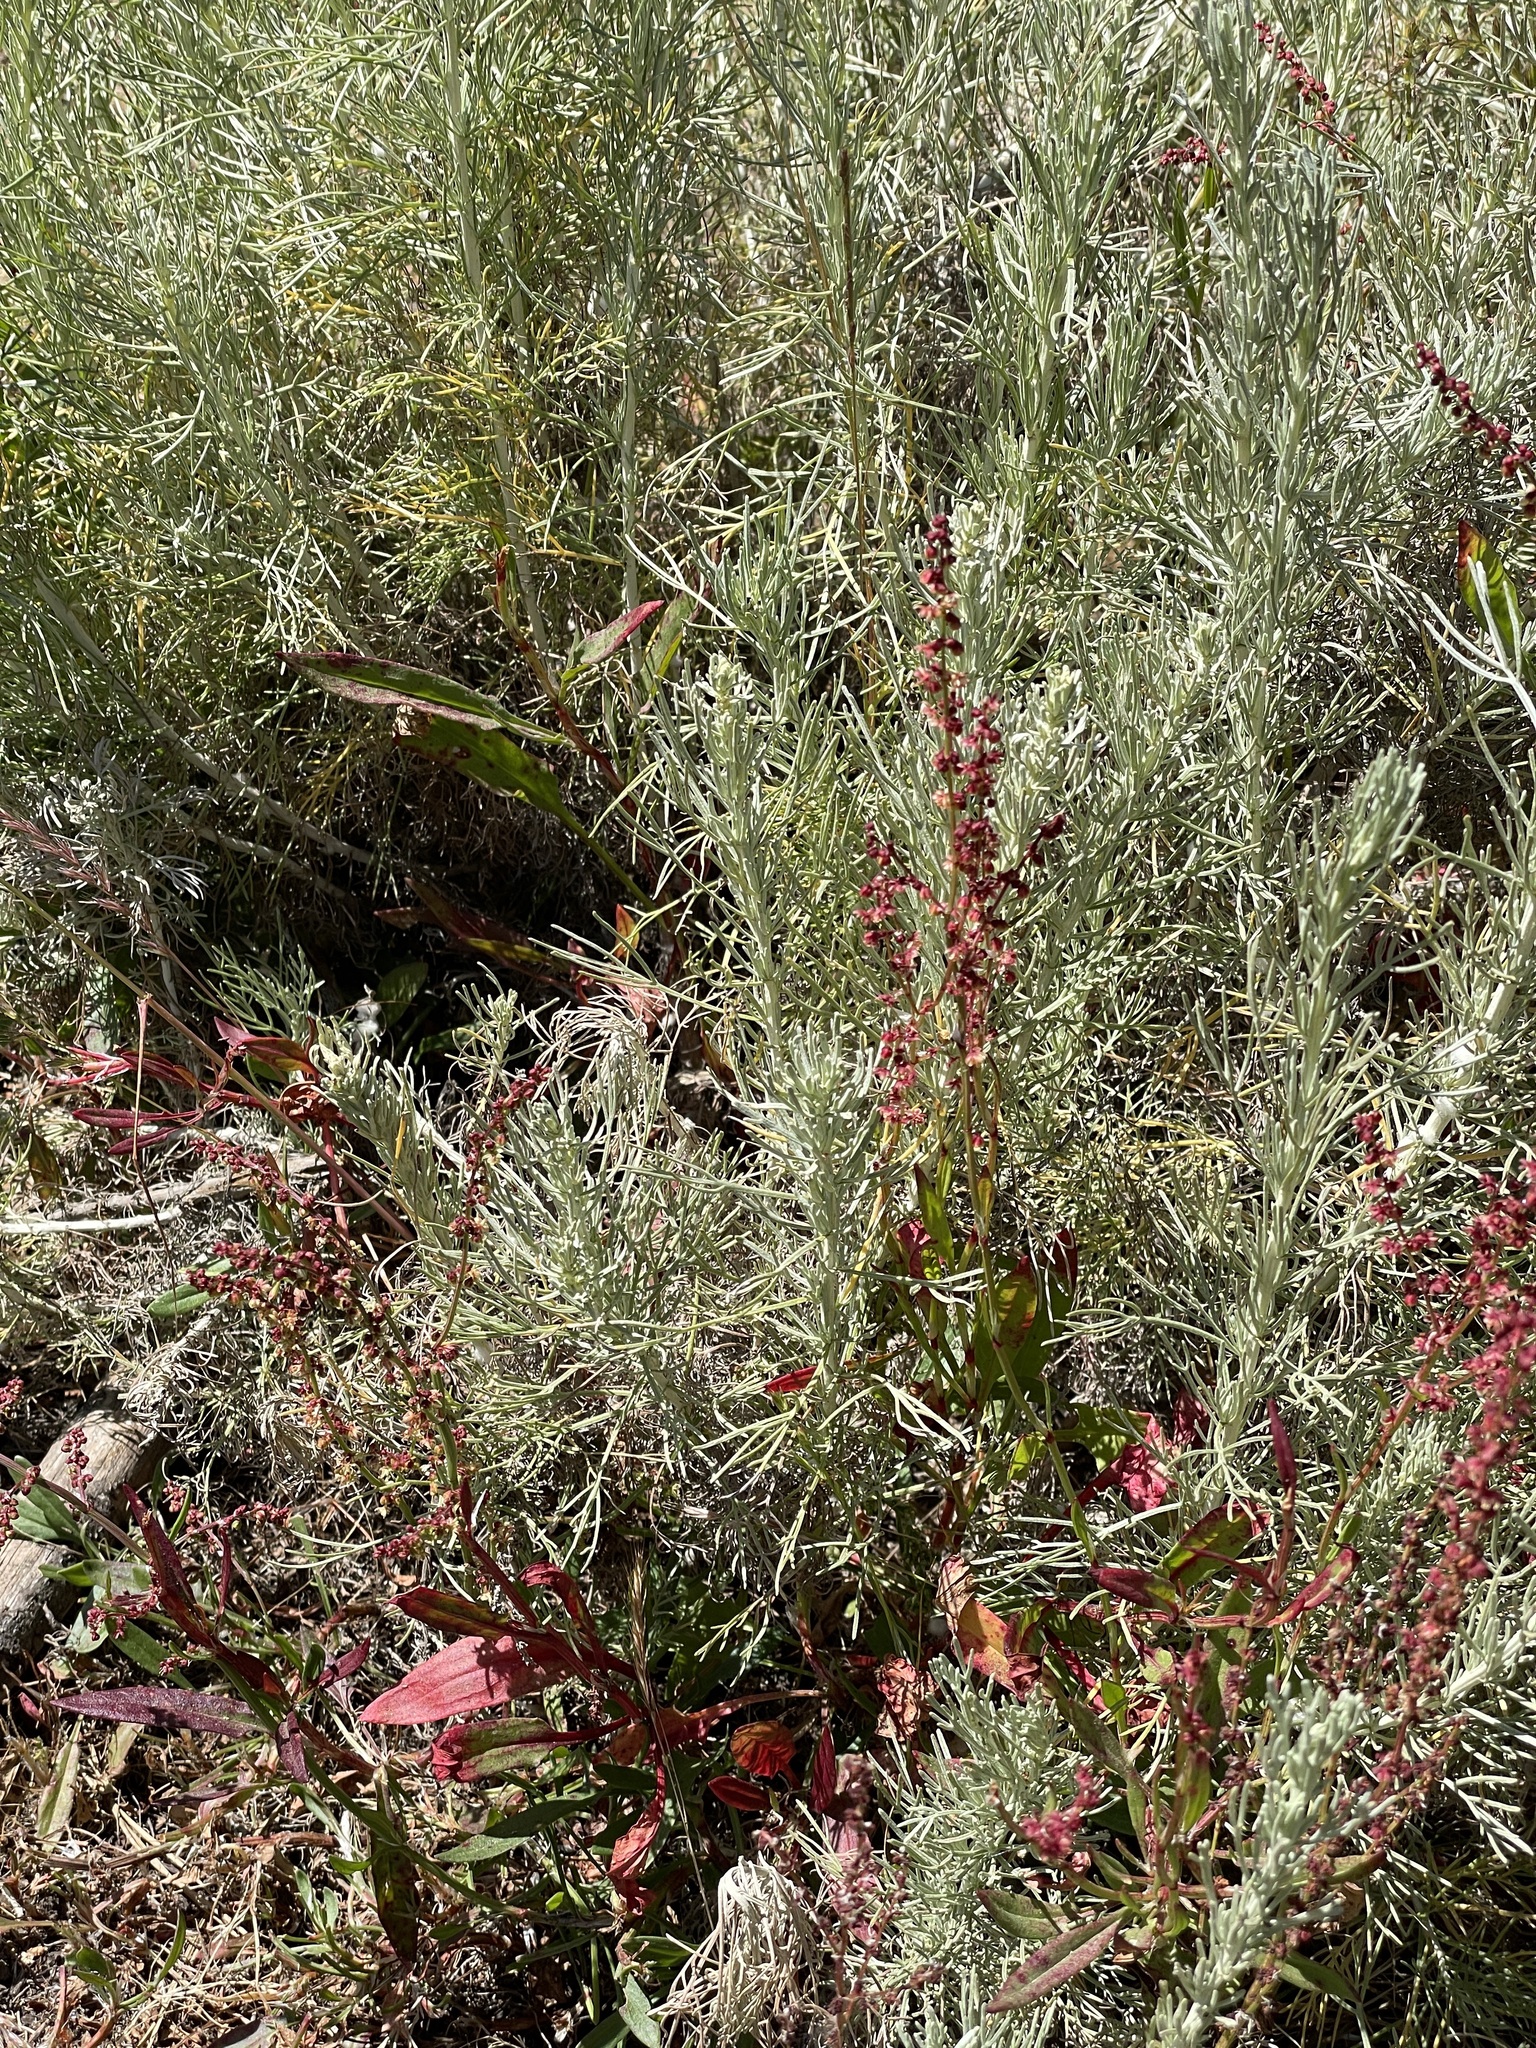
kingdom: Plantae
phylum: Tracheophyta
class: Magnoliopsida
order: Asterales
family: Asteraceae
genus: Artemisia
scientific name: Artemisia californica
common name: California sagebrush
